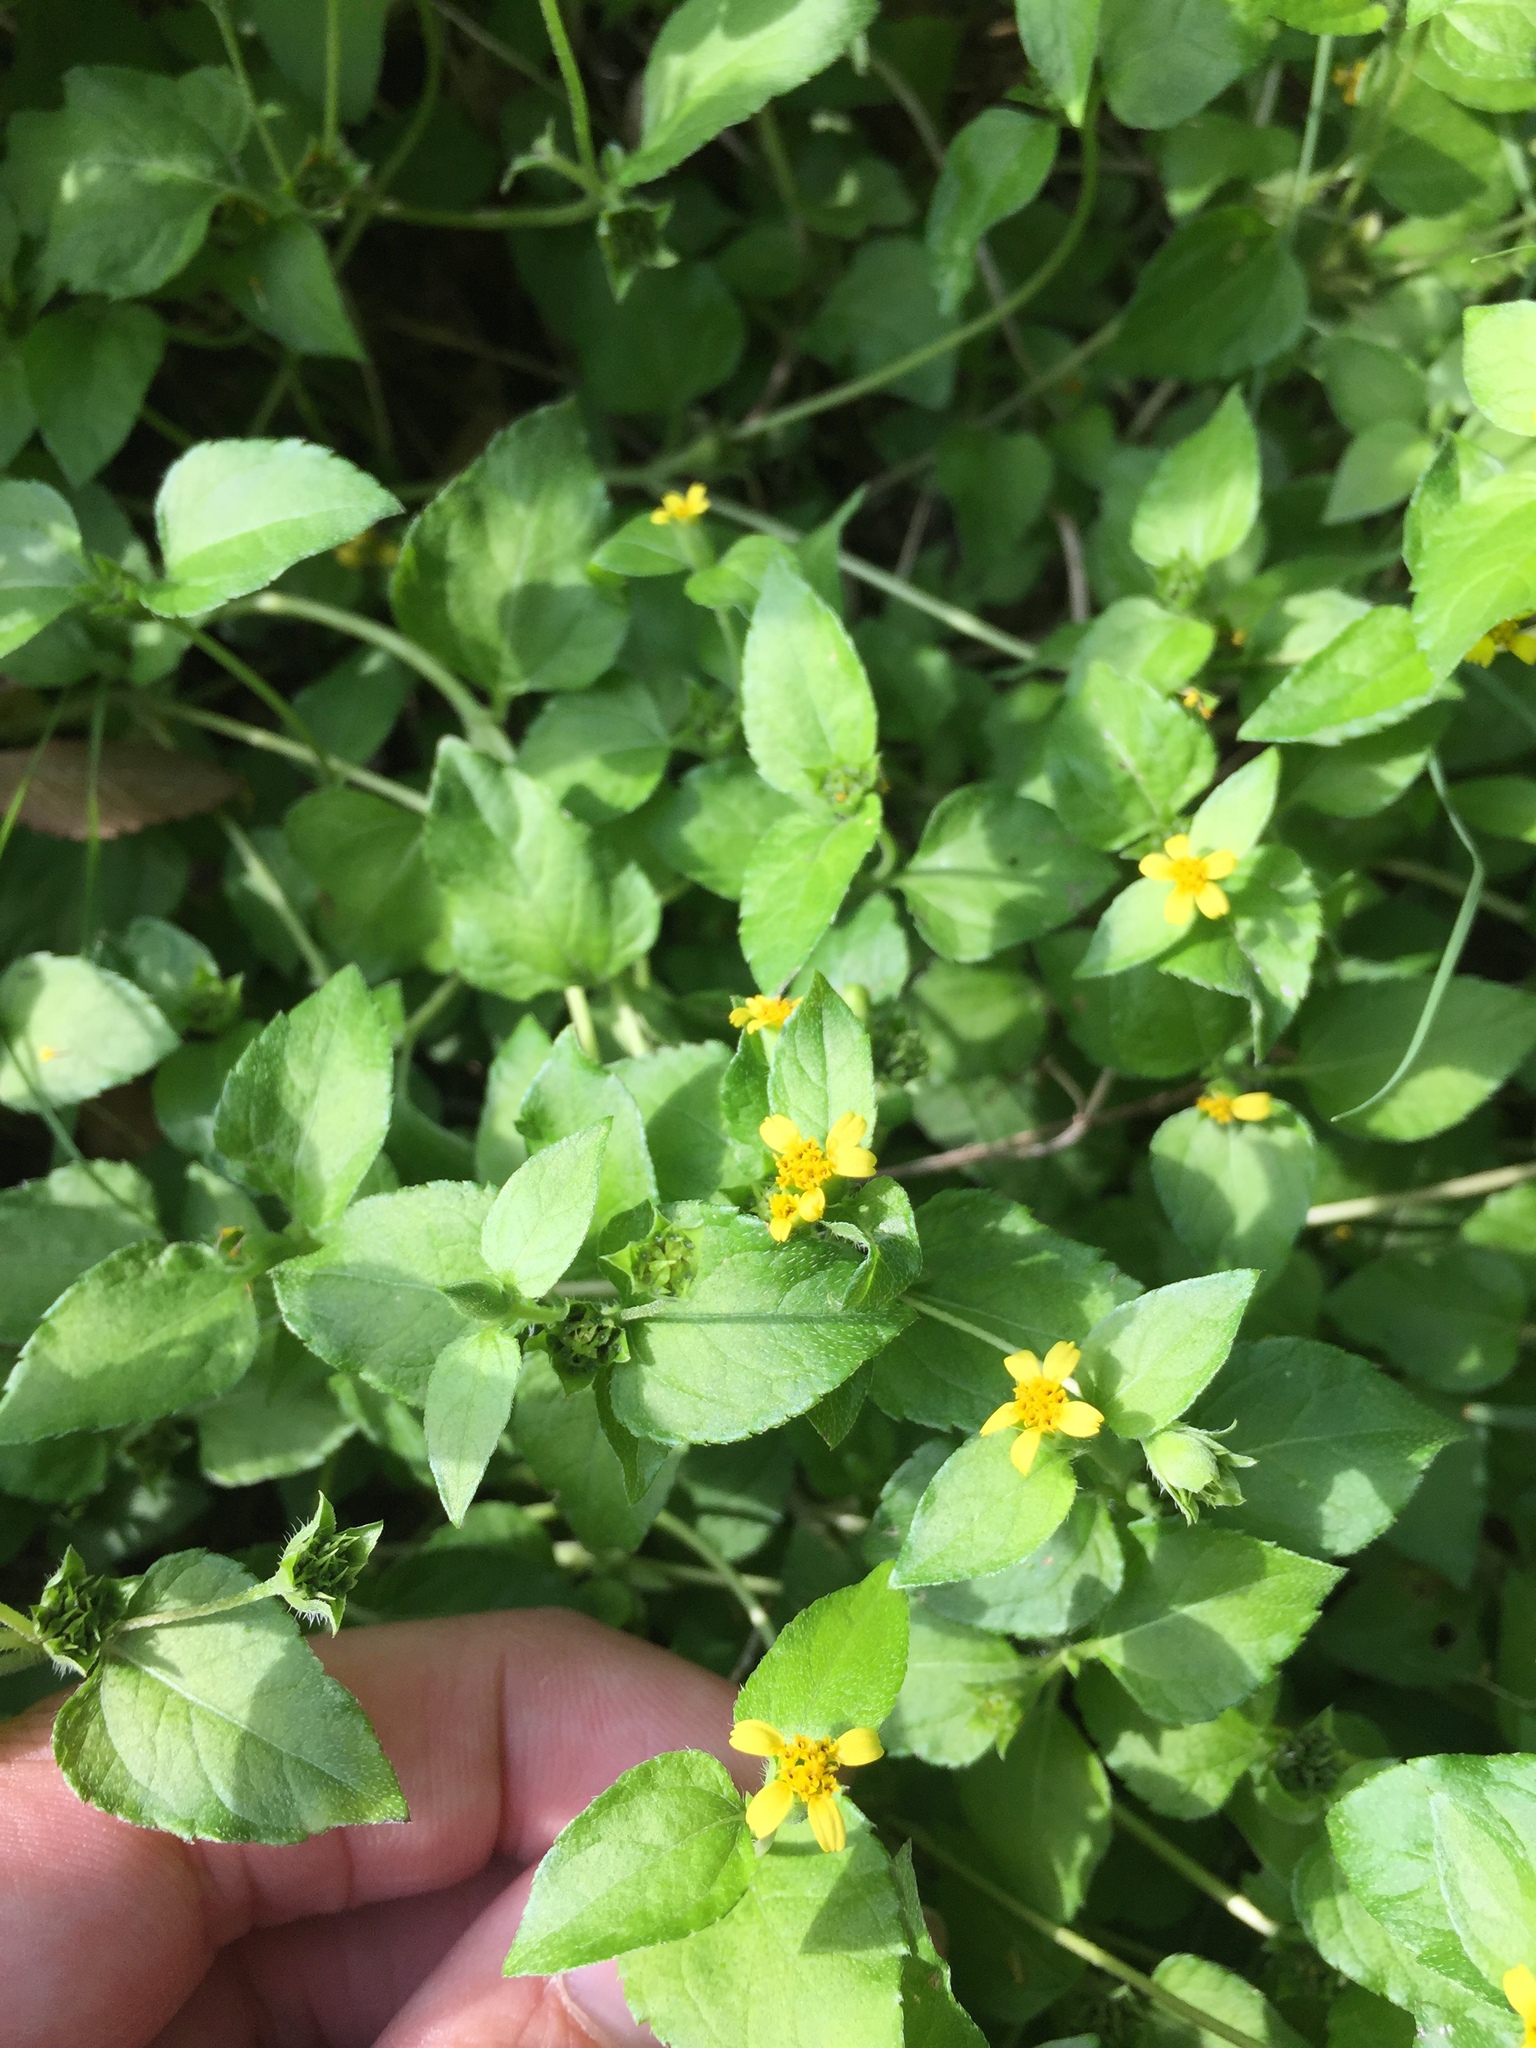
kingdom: Plantae
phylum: Tracheophyta
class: Magnoliopsida
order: Asterales
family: Asteraceae
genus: Calyptocarpus
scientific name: Calyptocarpus vialis
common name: Straggler daisy
